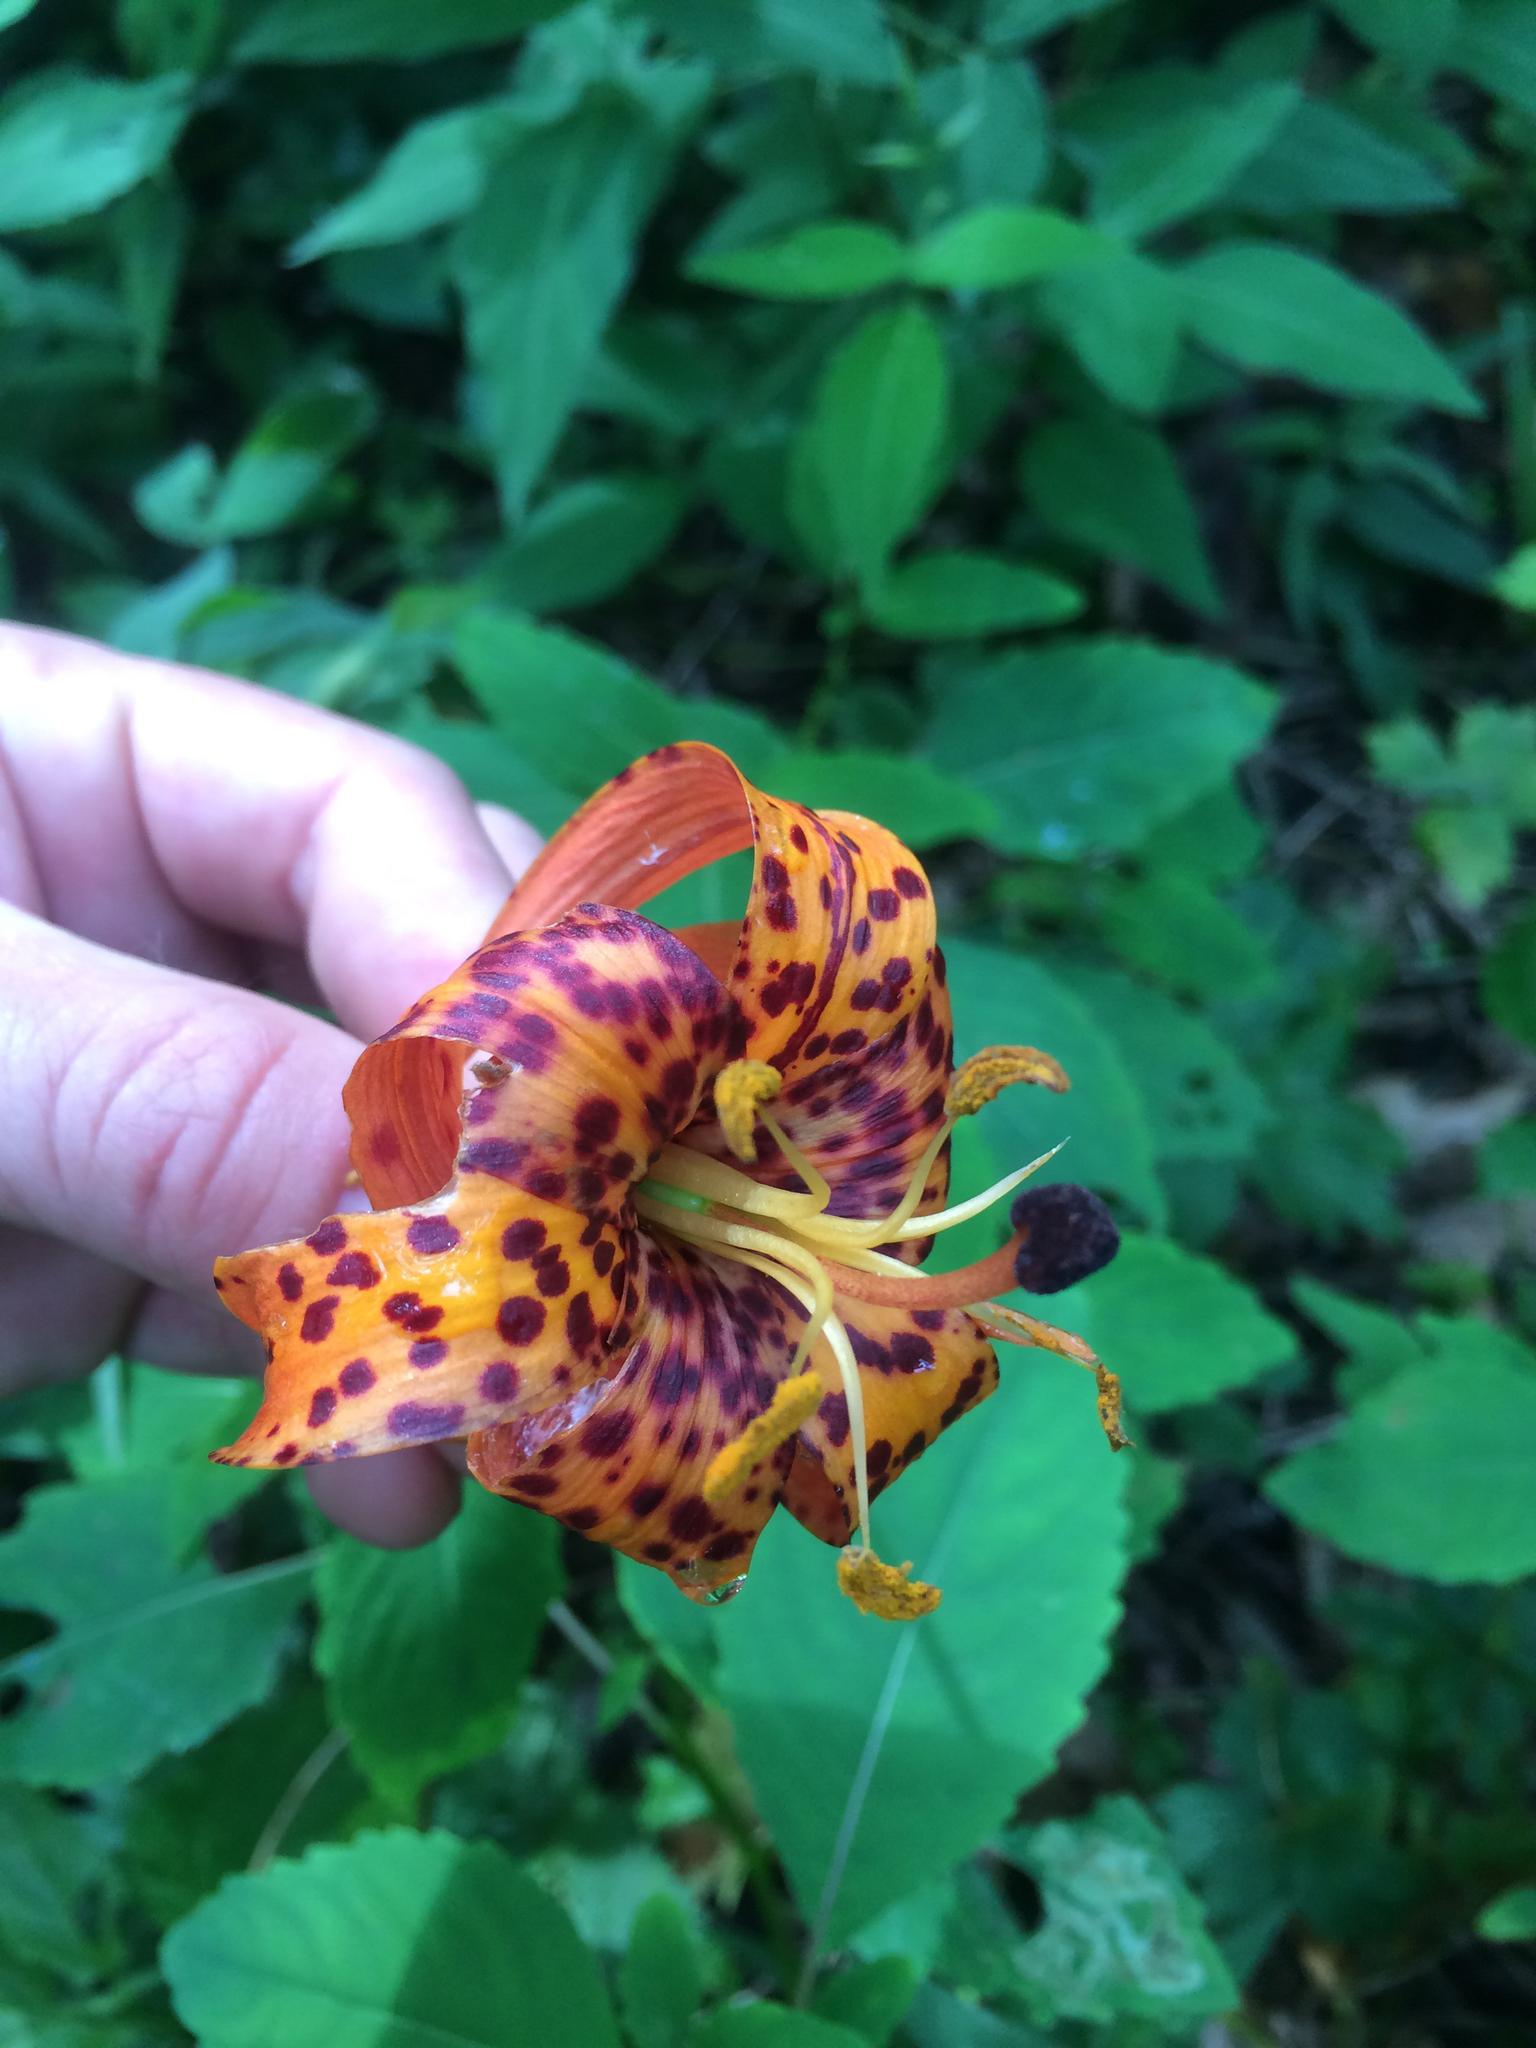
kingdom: Plantae
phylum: Tracheophyta
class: Liliopsida
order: Liliales
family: Liliaceae
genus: Lilium
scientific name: Lilium michiganense
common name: Michigan lily
